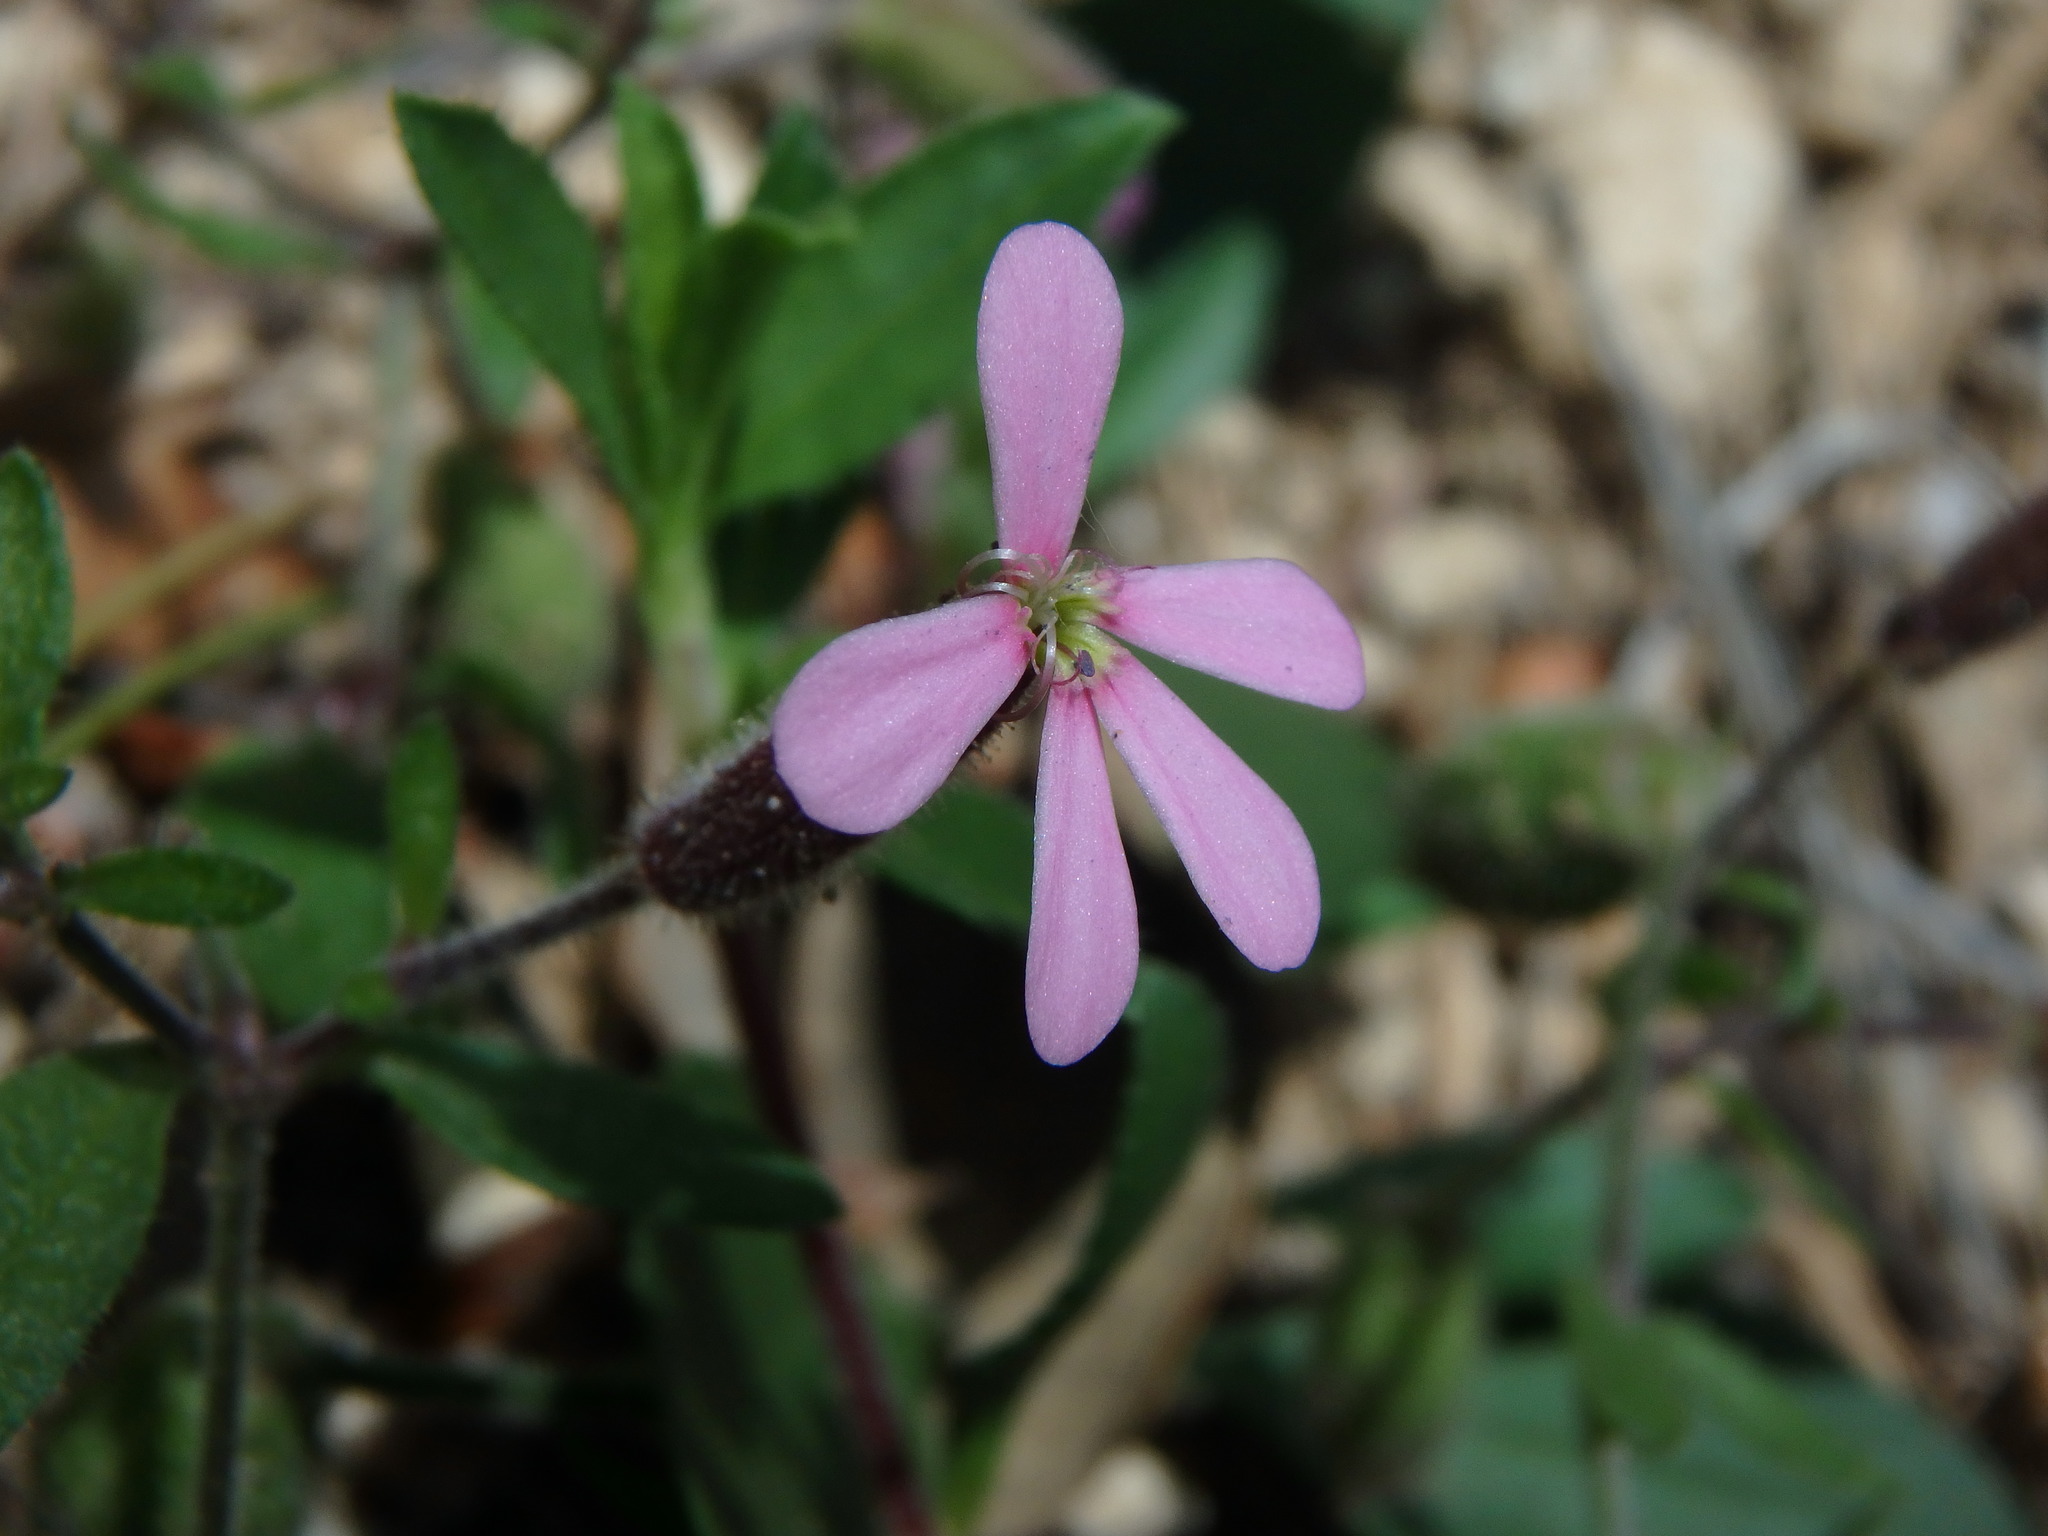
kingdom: Plantae
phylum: Tracheophyta
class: Magnoliopsida
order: Caryophyllales
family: Caryophyllaceae
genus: Saponaria
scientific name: Saponaria ocymoides
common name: Rock soapwort
